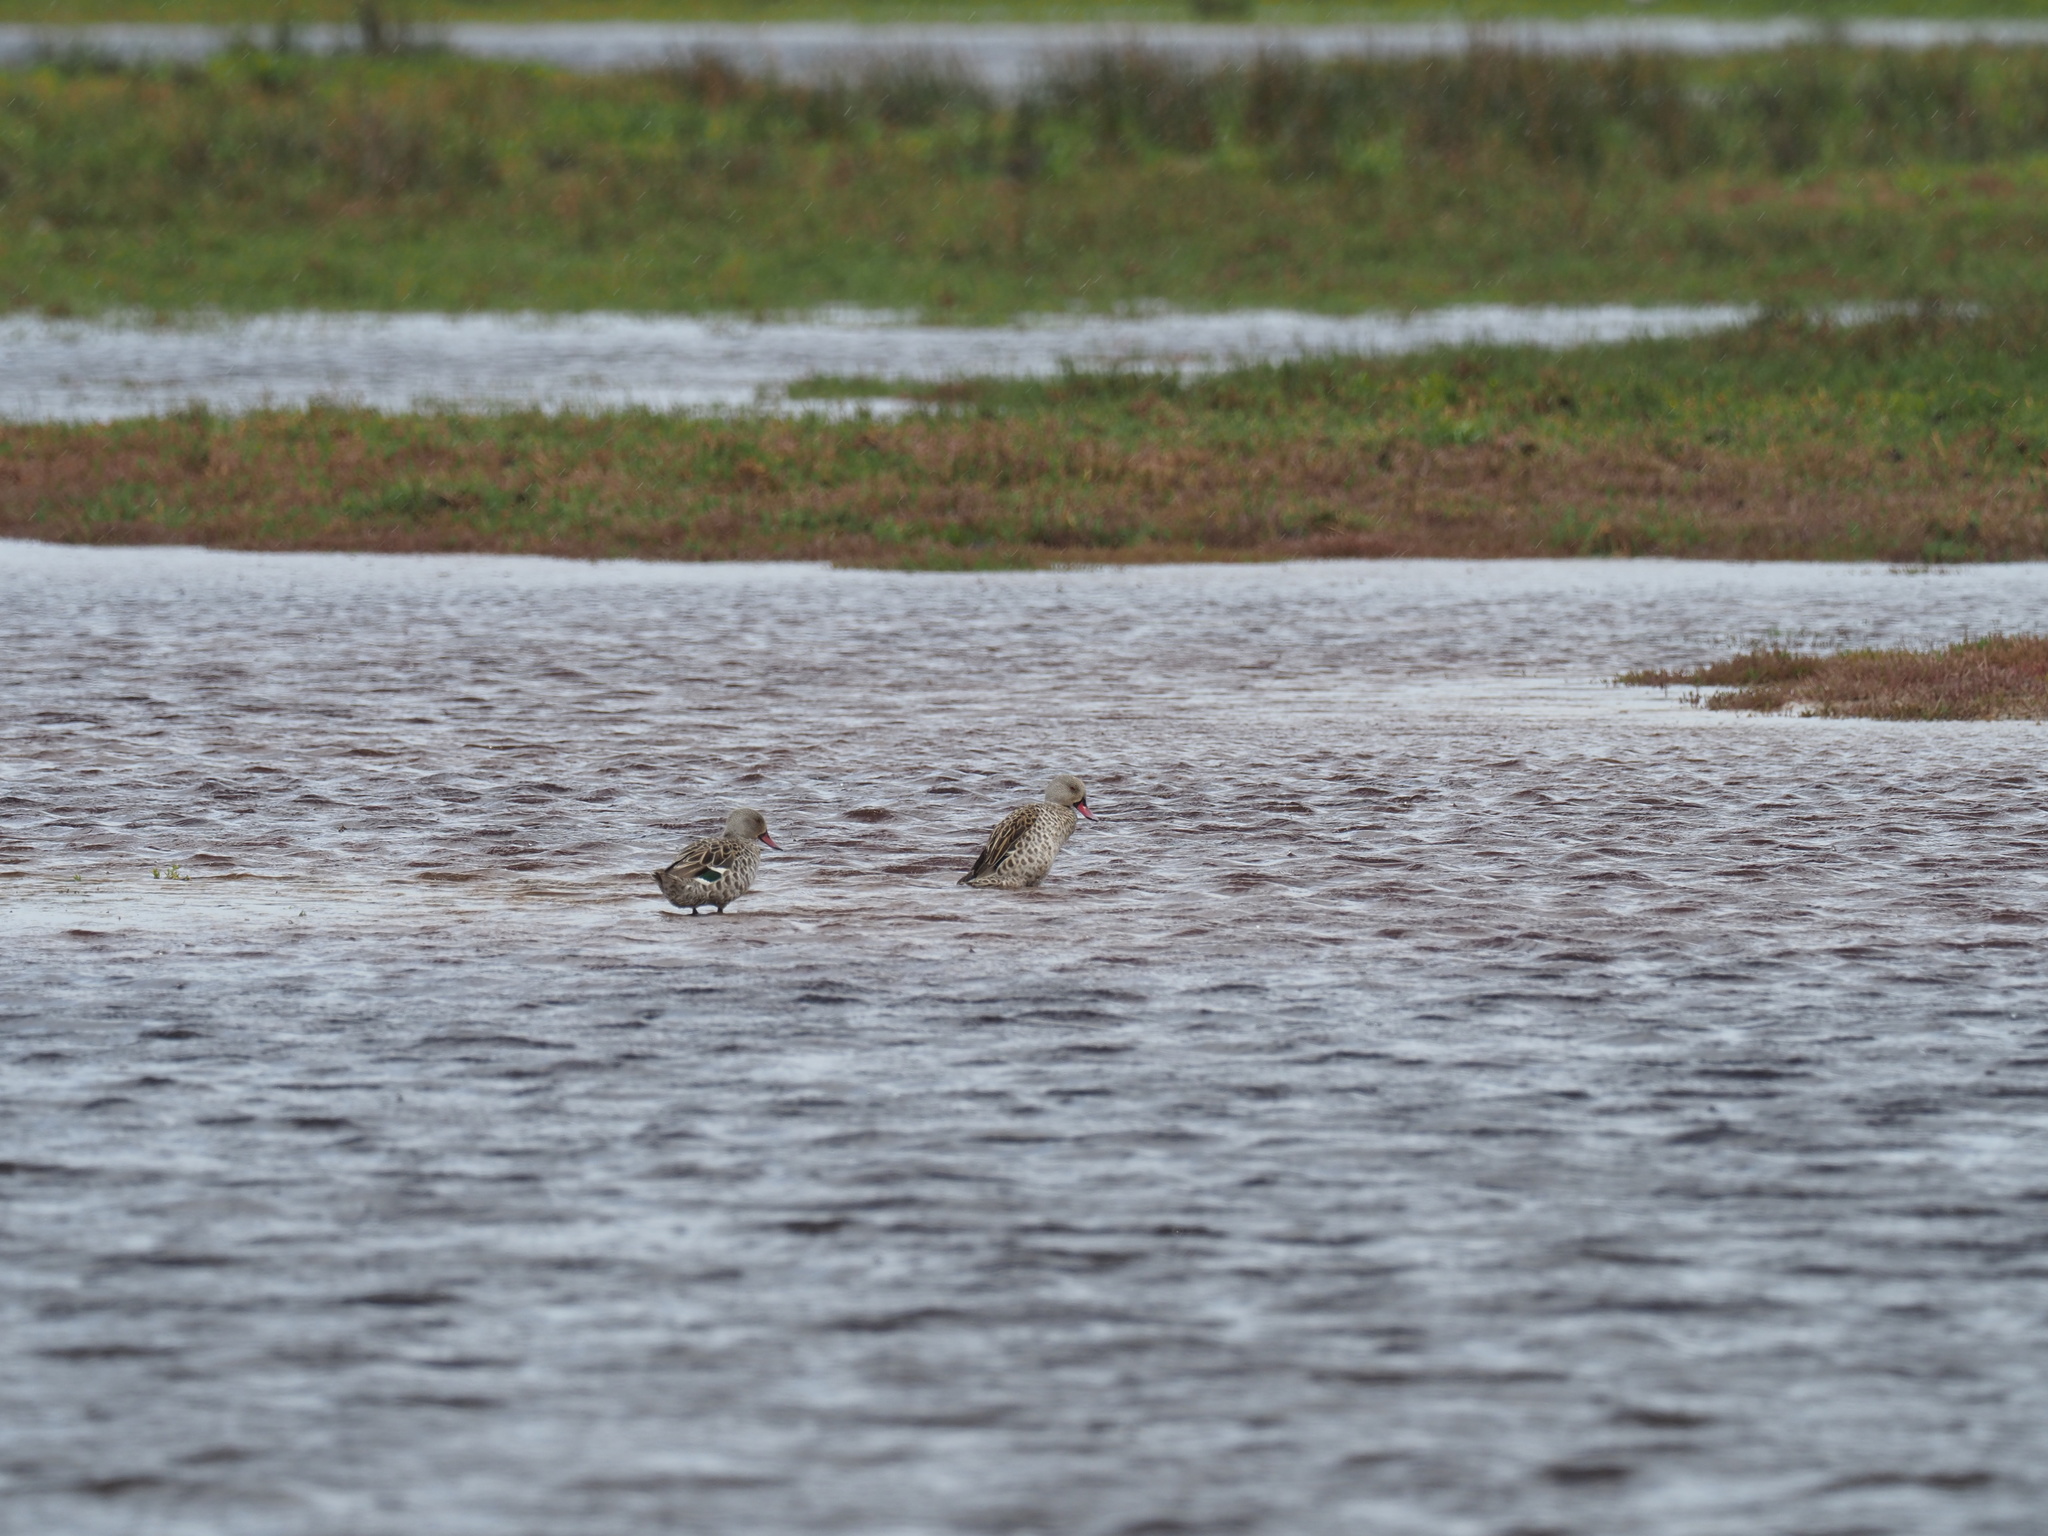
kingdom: Animalia
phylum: Chordata
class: Aves
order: Anseriformes
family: Anatidae
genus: Anas
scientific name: Anas capensis
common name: Cape teal
